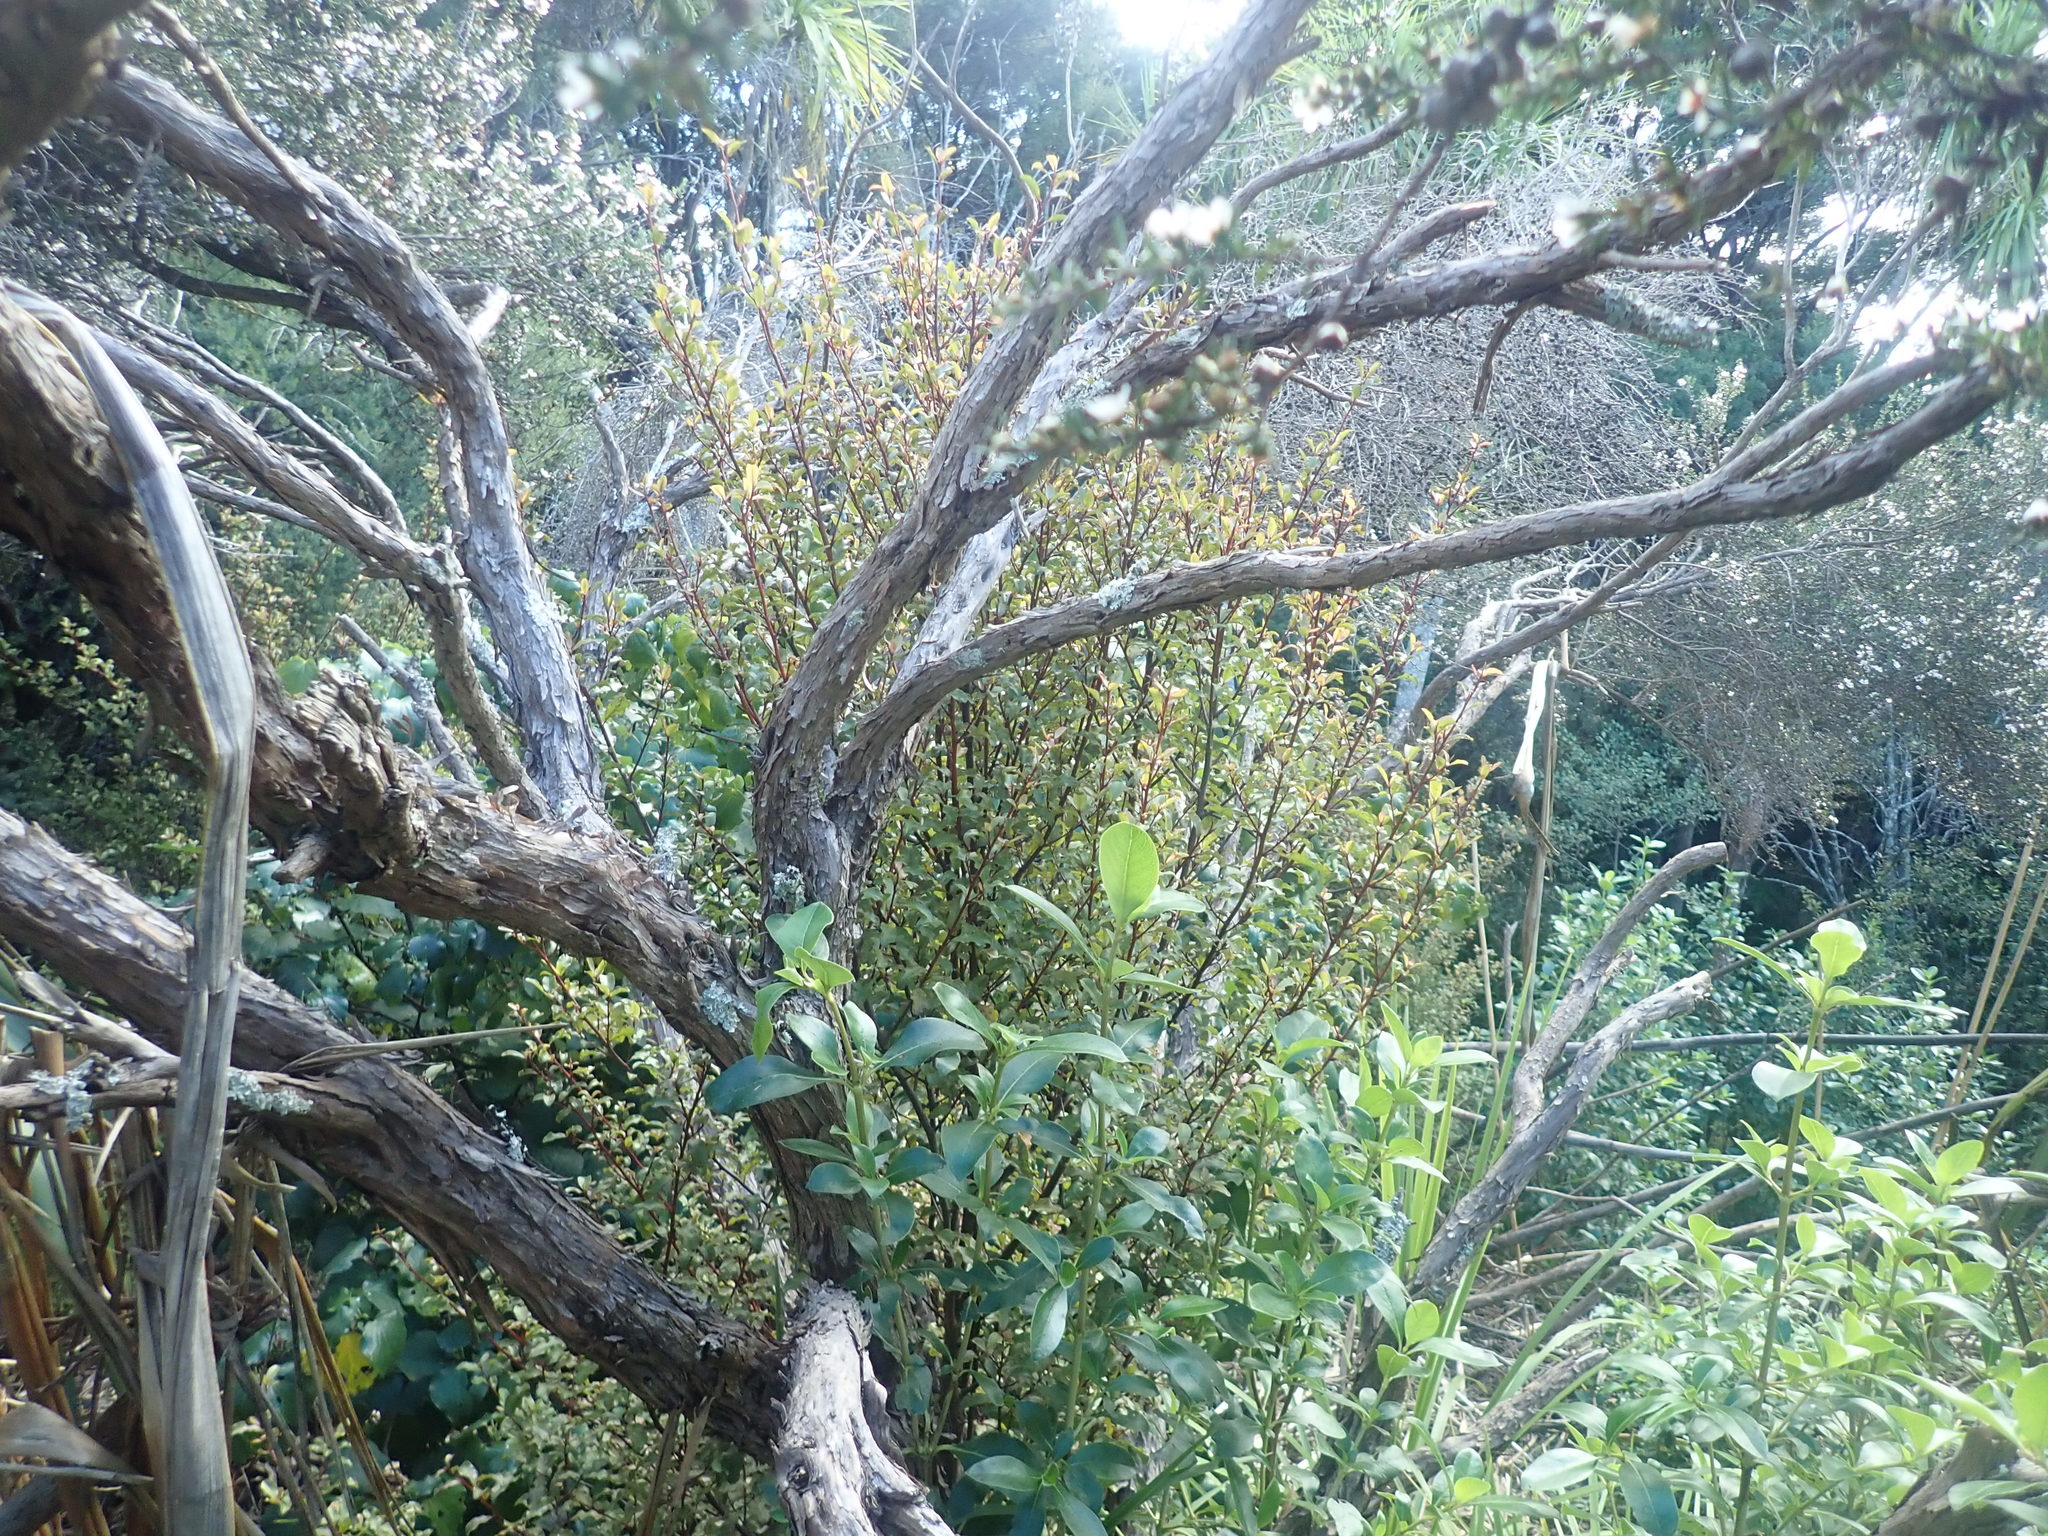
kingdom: Plantae
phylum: Tracheophyta
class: Magnoliopsida
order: Ericales
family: Primulaceae
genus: Myrsine
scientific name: Myrsine australis
